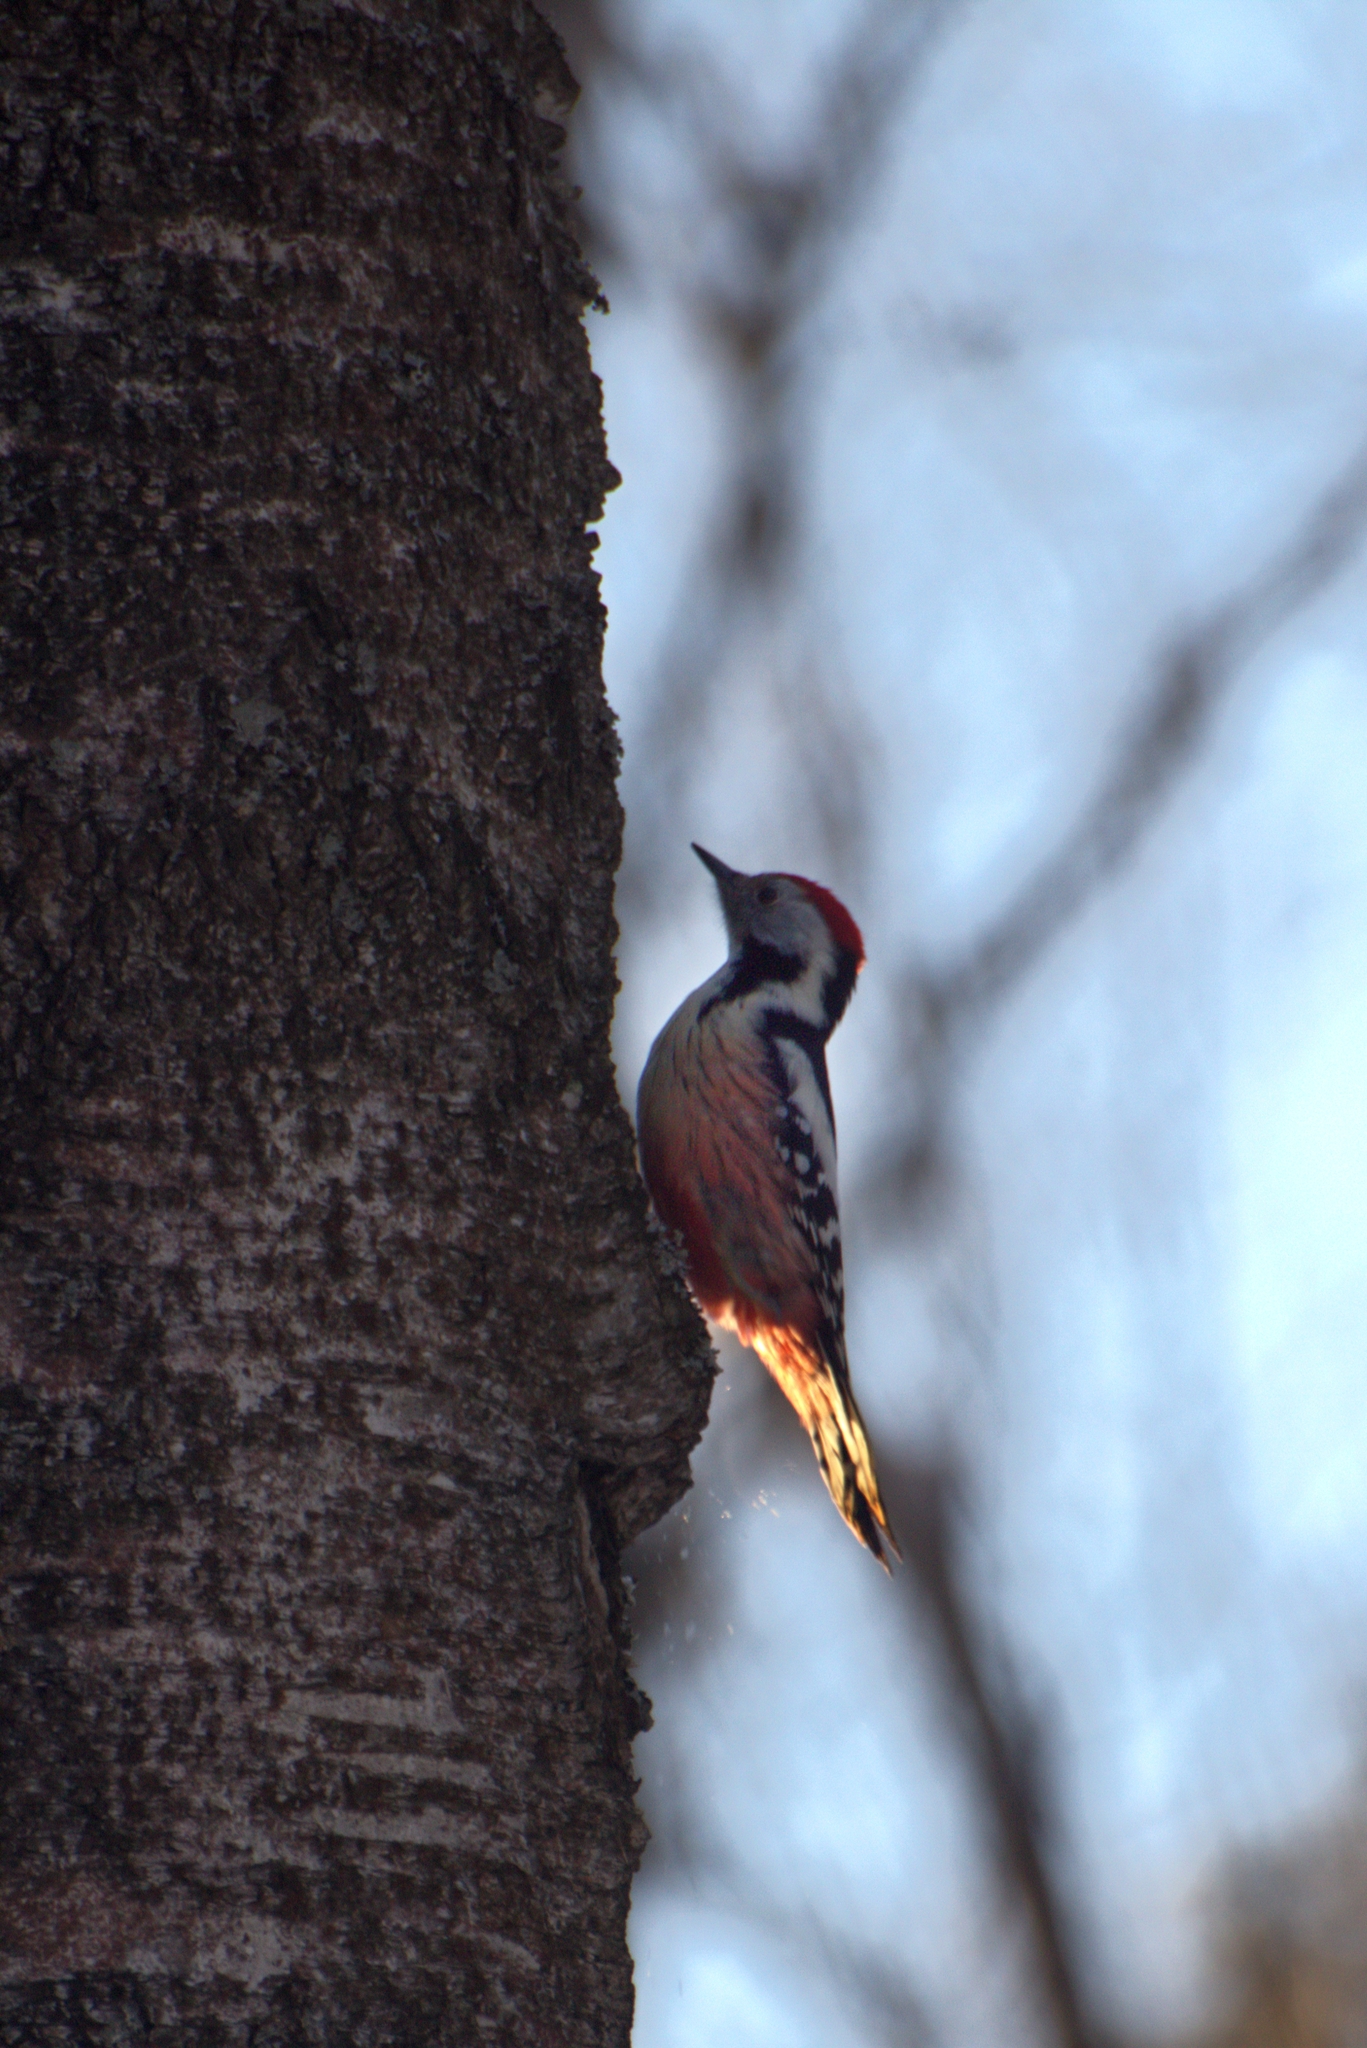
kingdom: Animalia
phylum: Chordata
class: Aves
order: Piciformes
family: Picidae
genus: Dendrocoptes
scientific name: Dendrocoptes medius
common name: Middle spotted woodpecker
